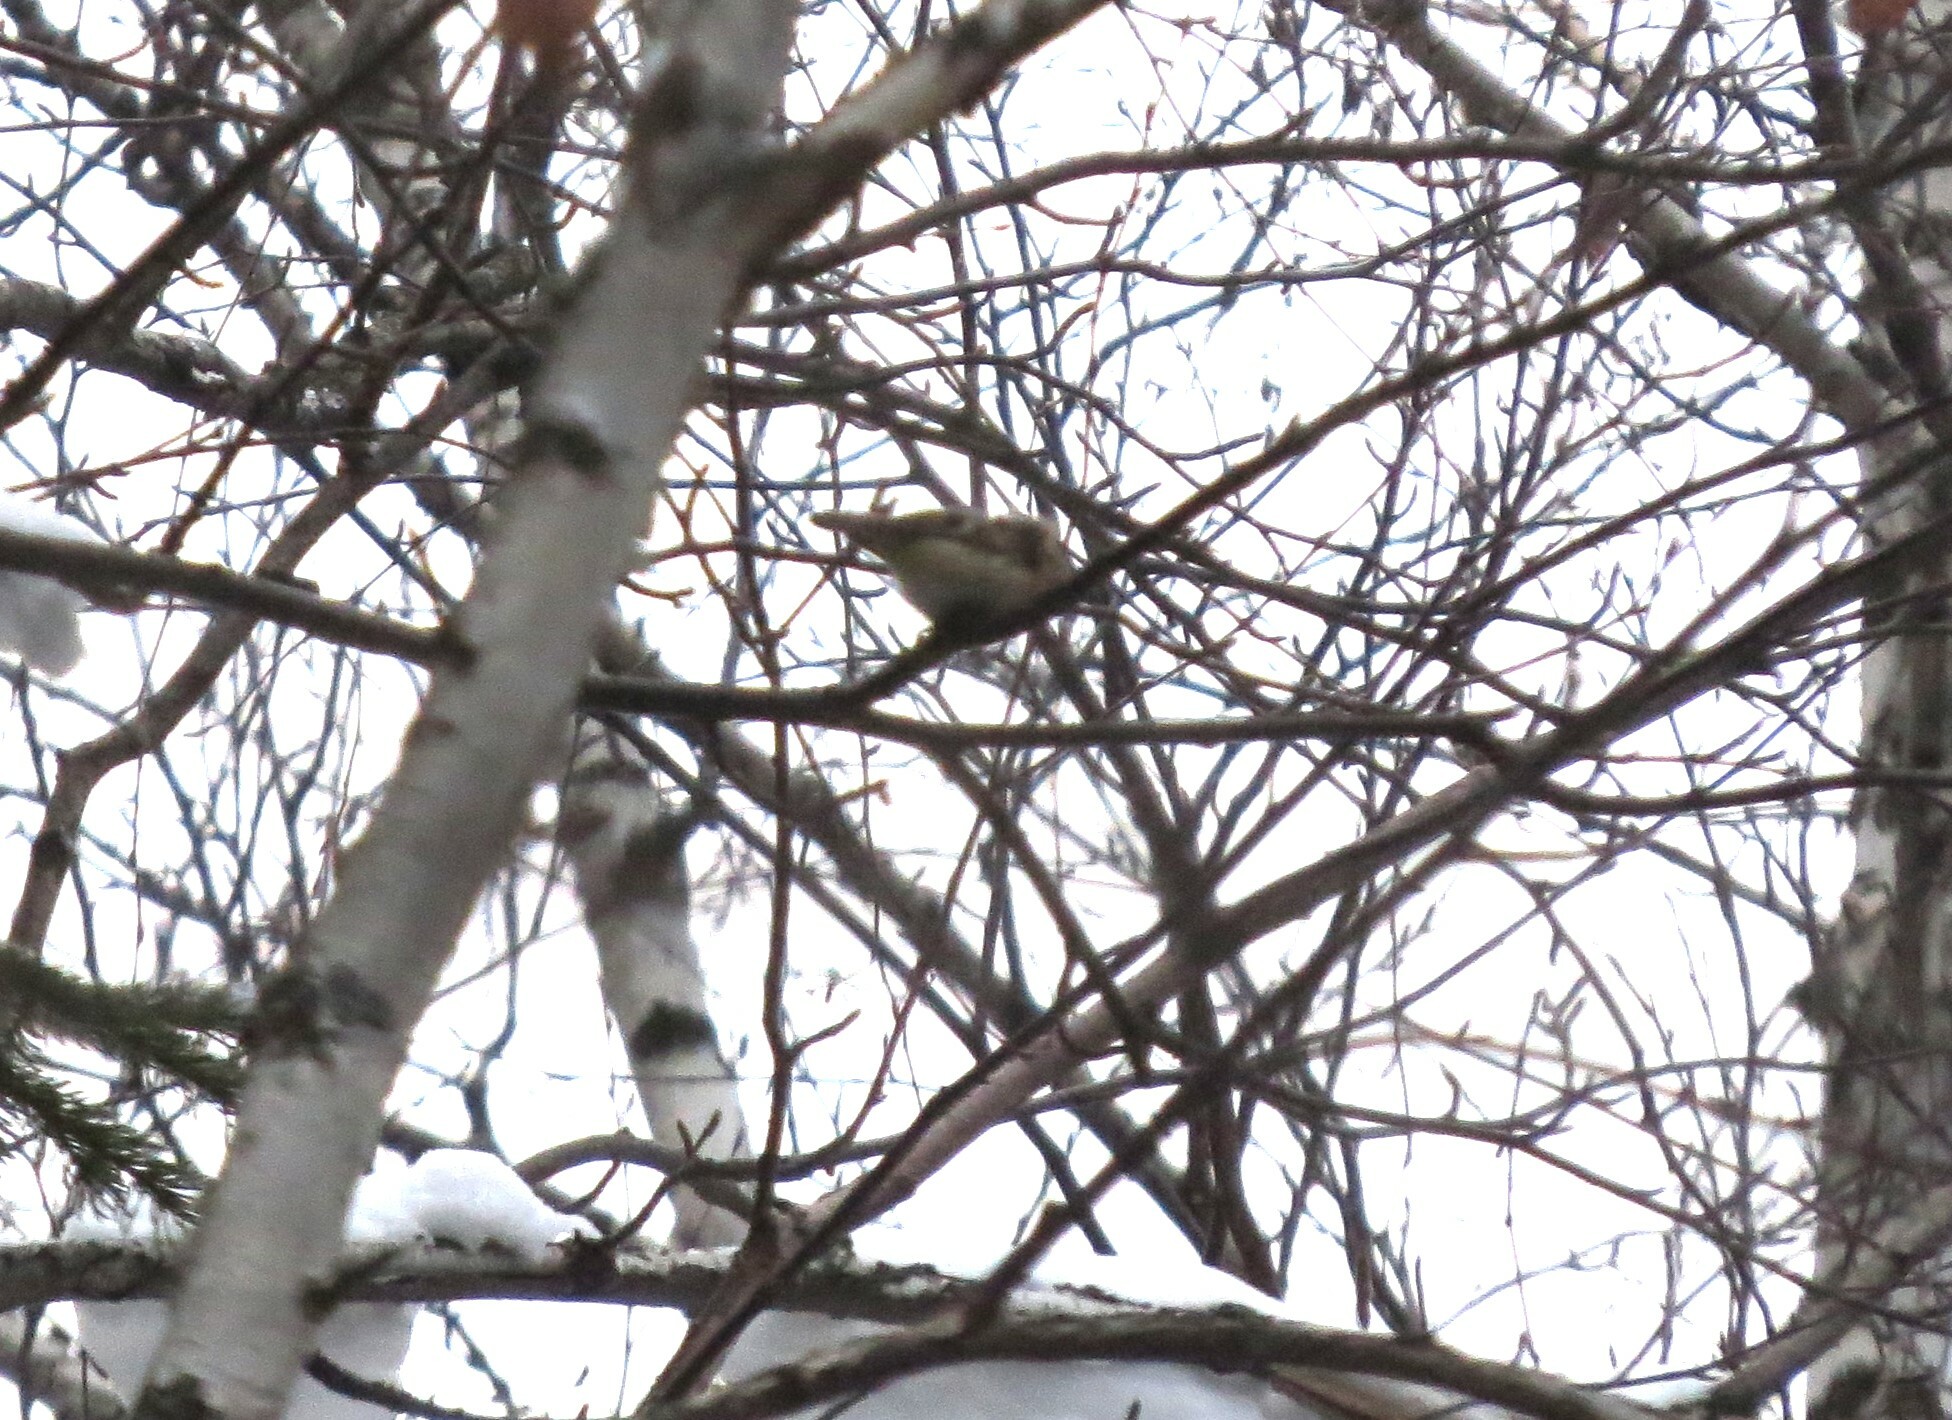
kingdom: Animalia
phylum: Chordata
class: Aves
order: Passeriformes
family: Regulidae
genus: Regulus
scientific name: Regulus regulus
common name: Goldcrest
